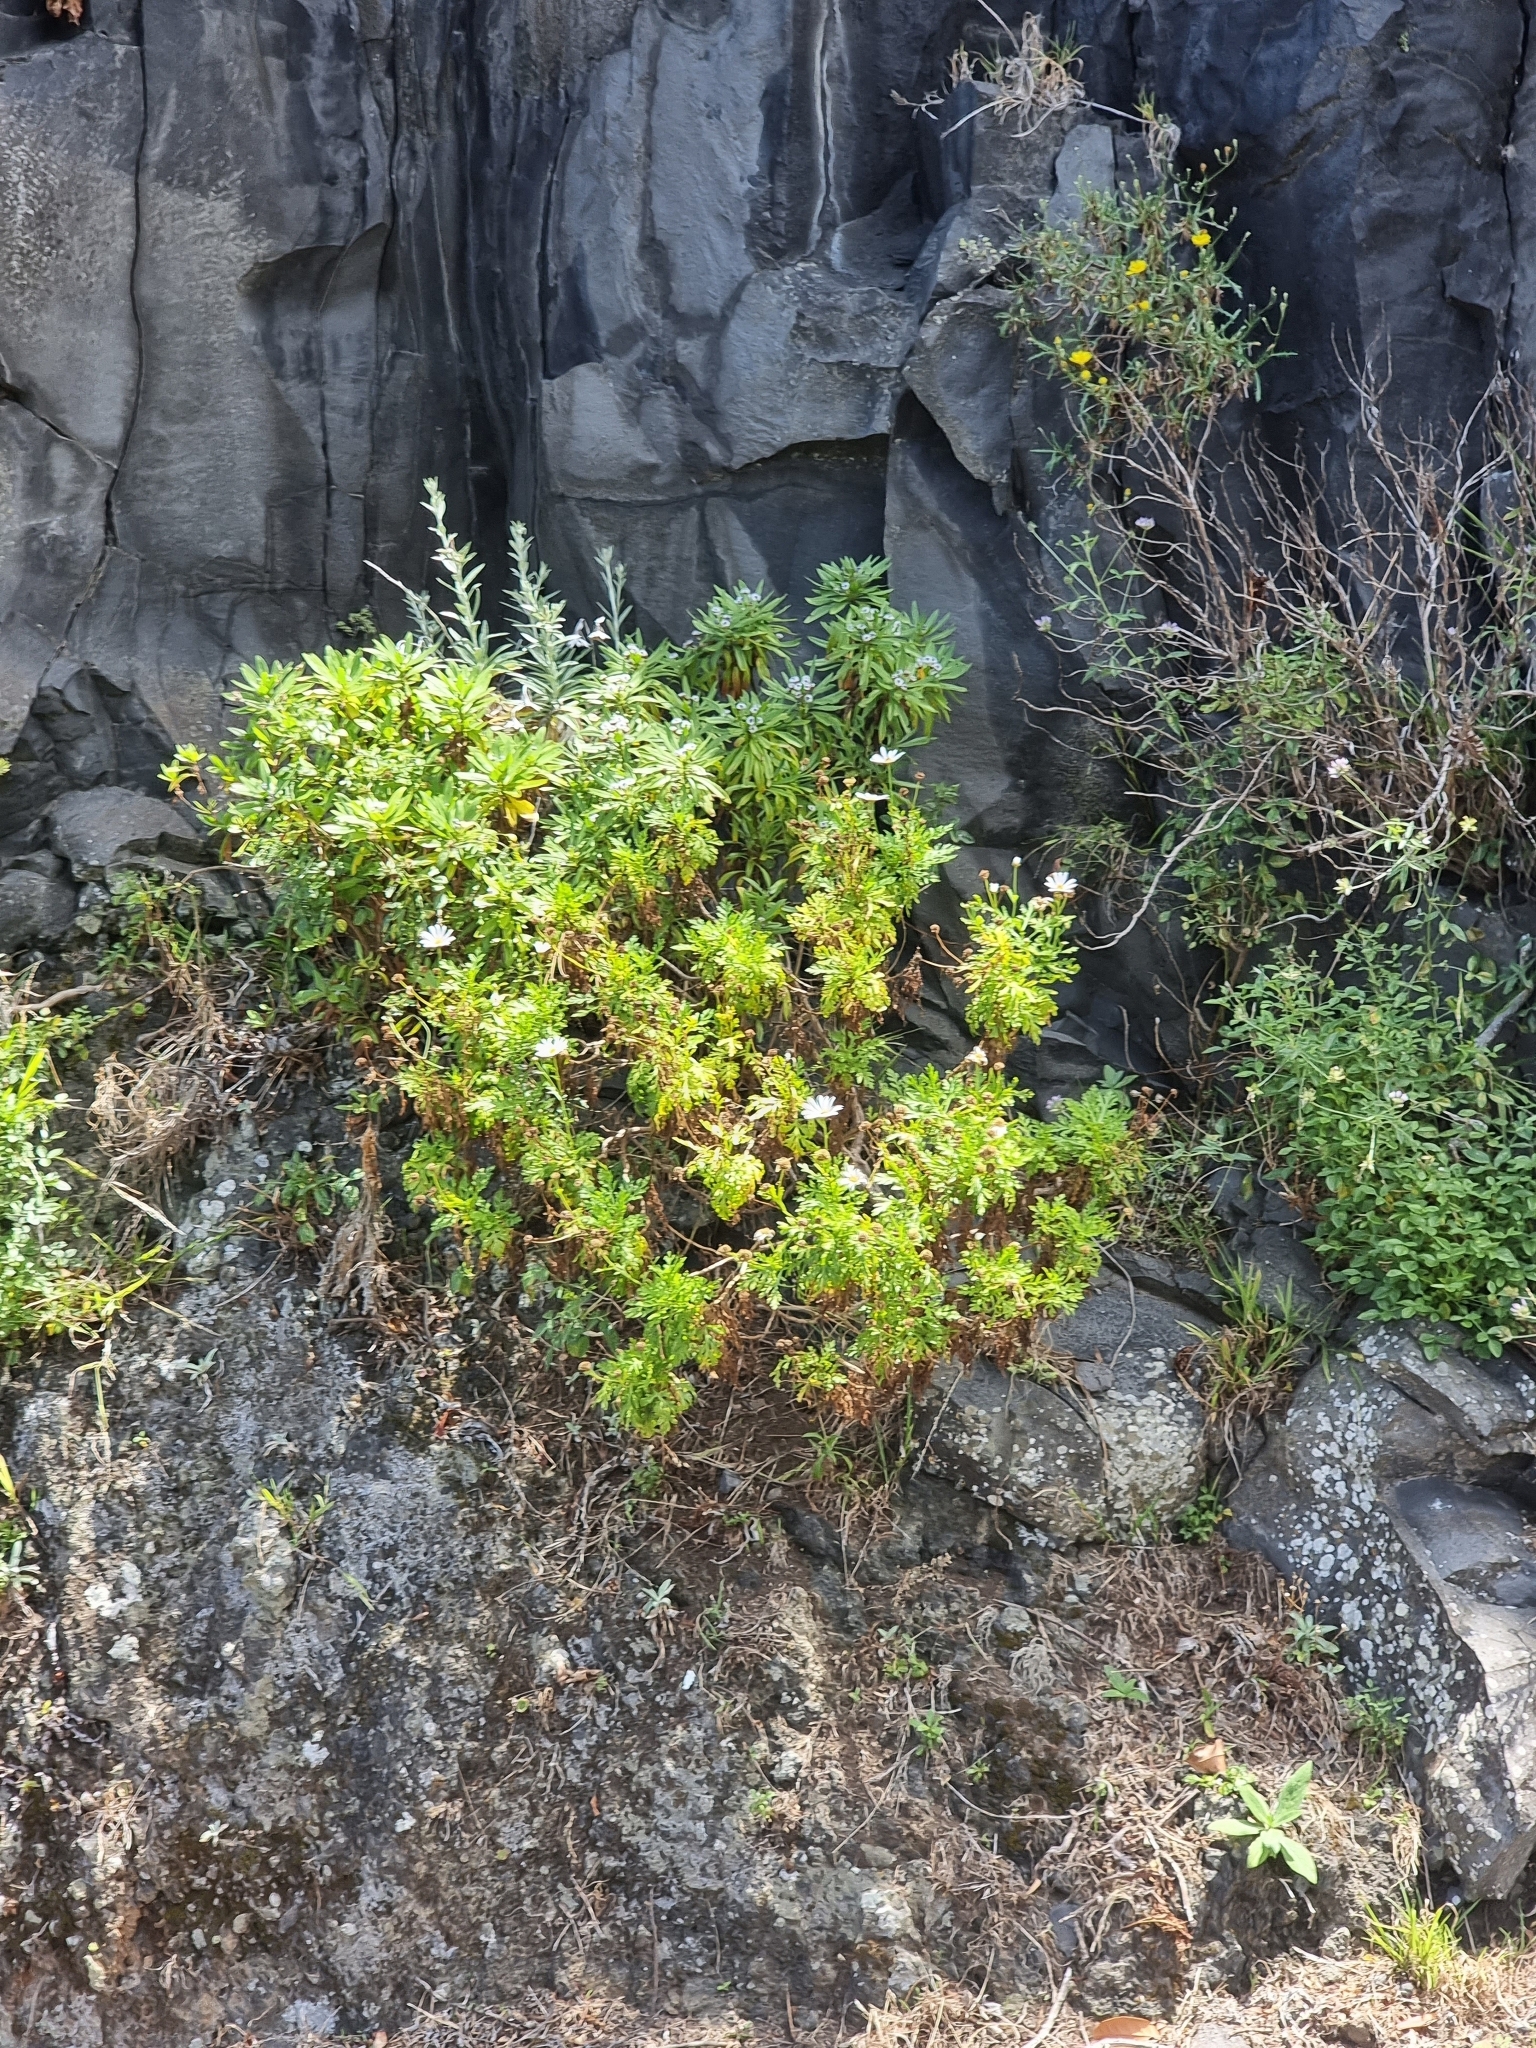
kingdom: Plantae
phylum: Tracheophyta
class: Magnoliopsida
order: Asterales
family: Asteraceae
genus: Argyranthemum
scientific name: Argyranthemum haematomma
